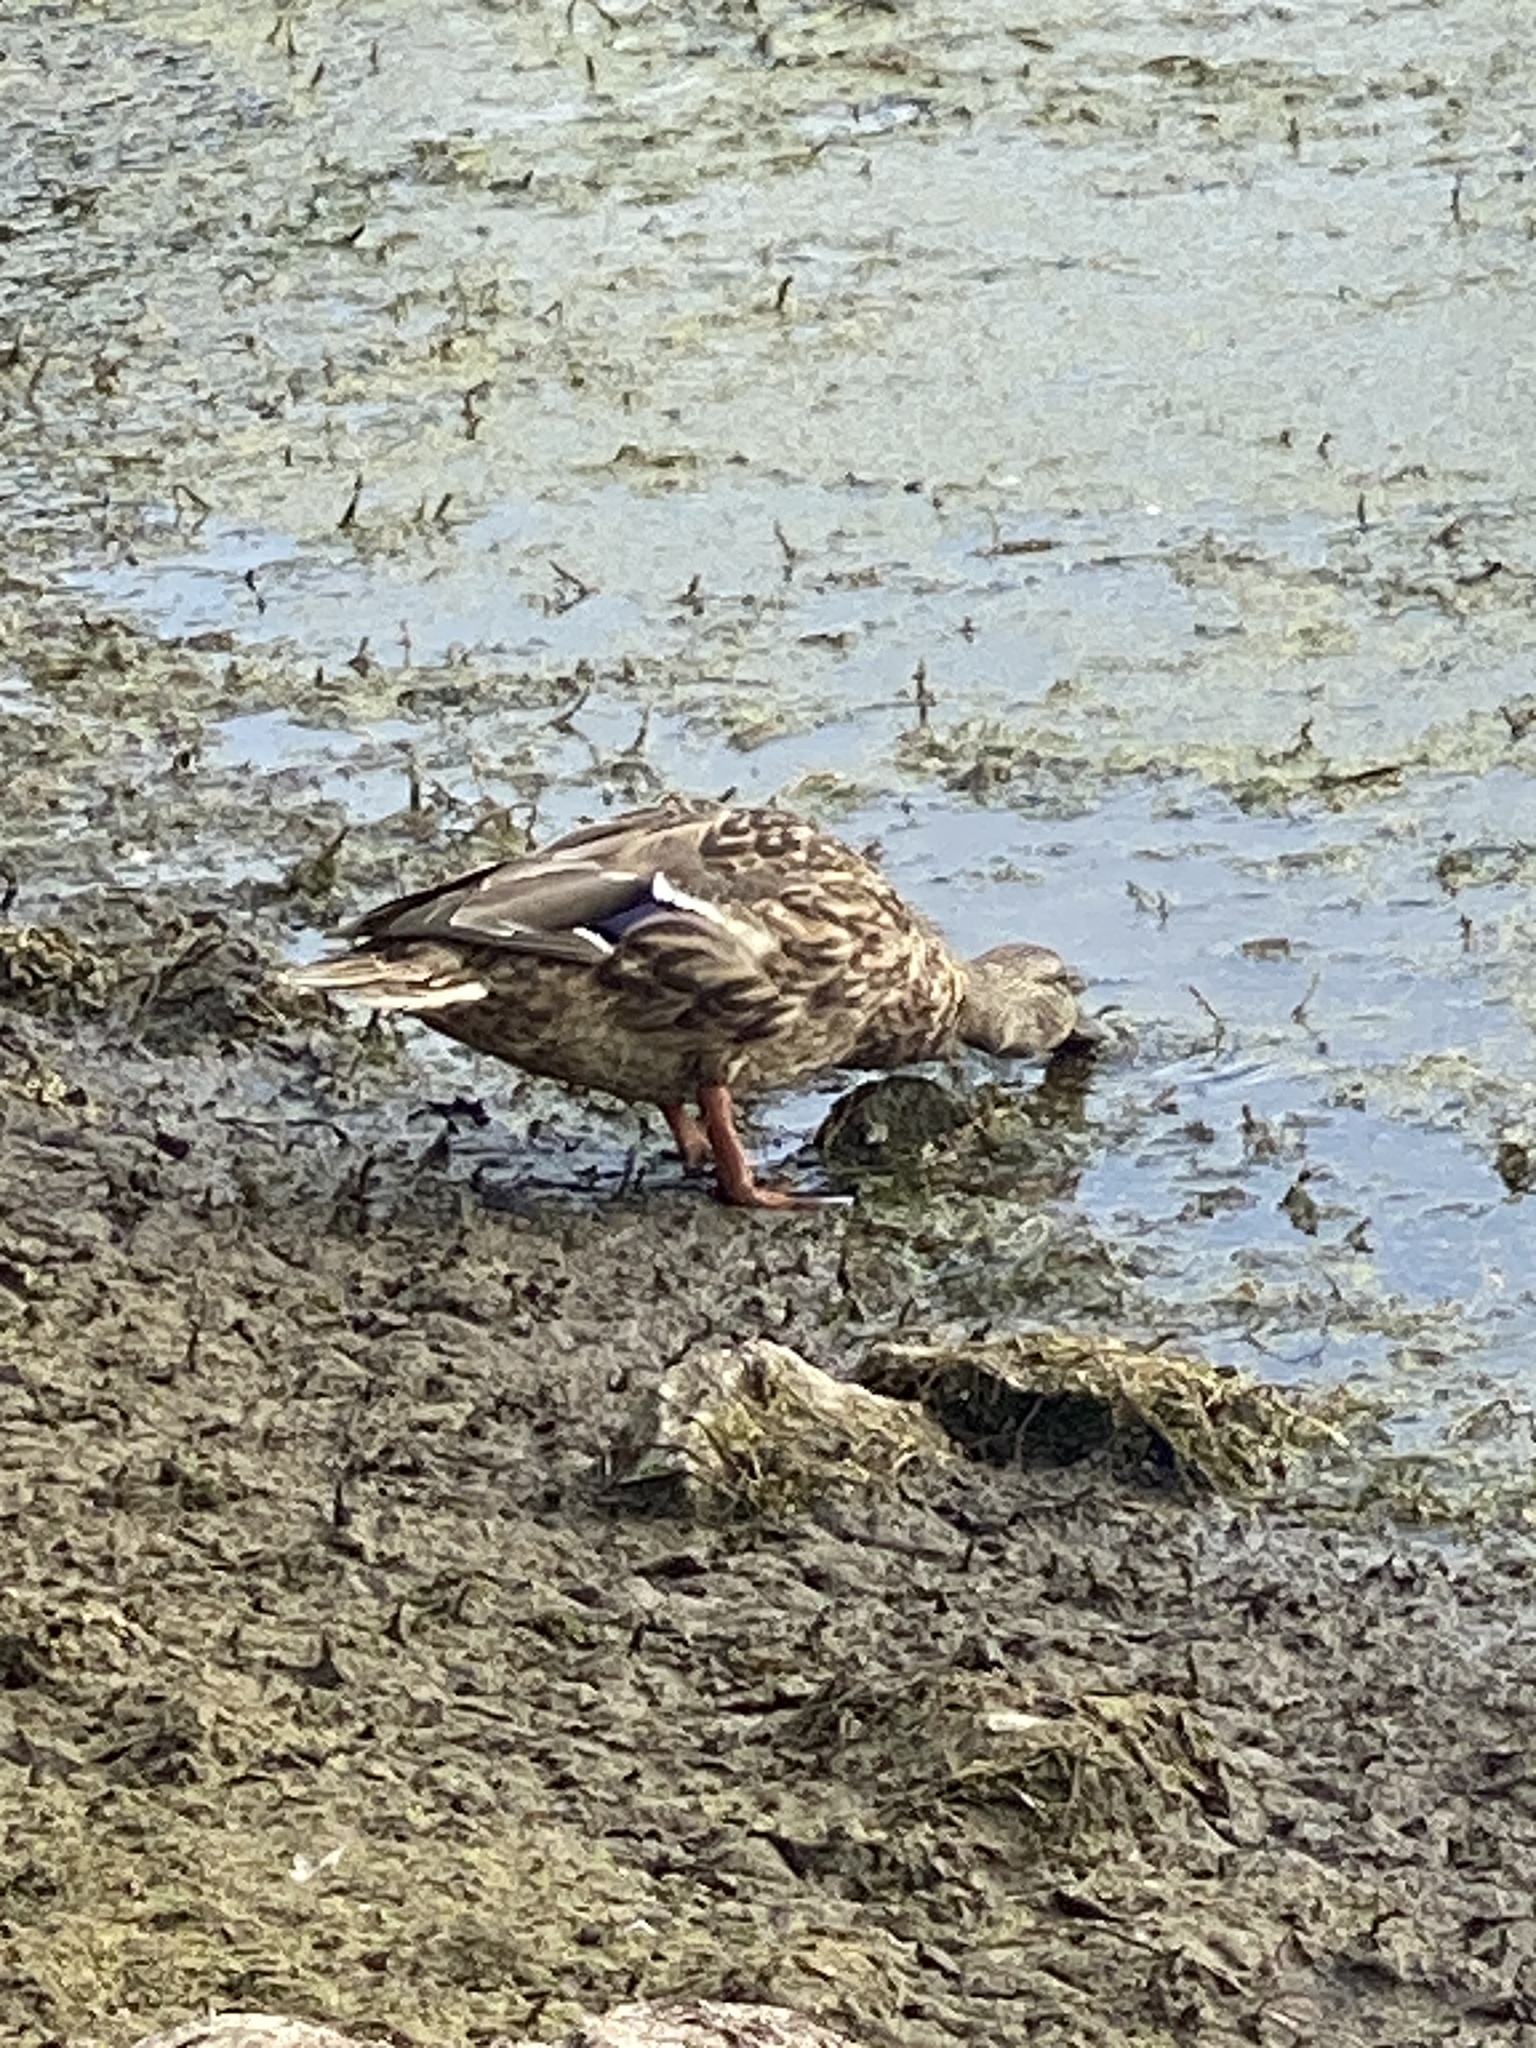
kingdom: Animalia
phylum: Chordata
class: Aves
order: Anseriformes
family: Anatidae
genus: Anas
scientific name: Anas platyrhynchos
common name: Mallard
